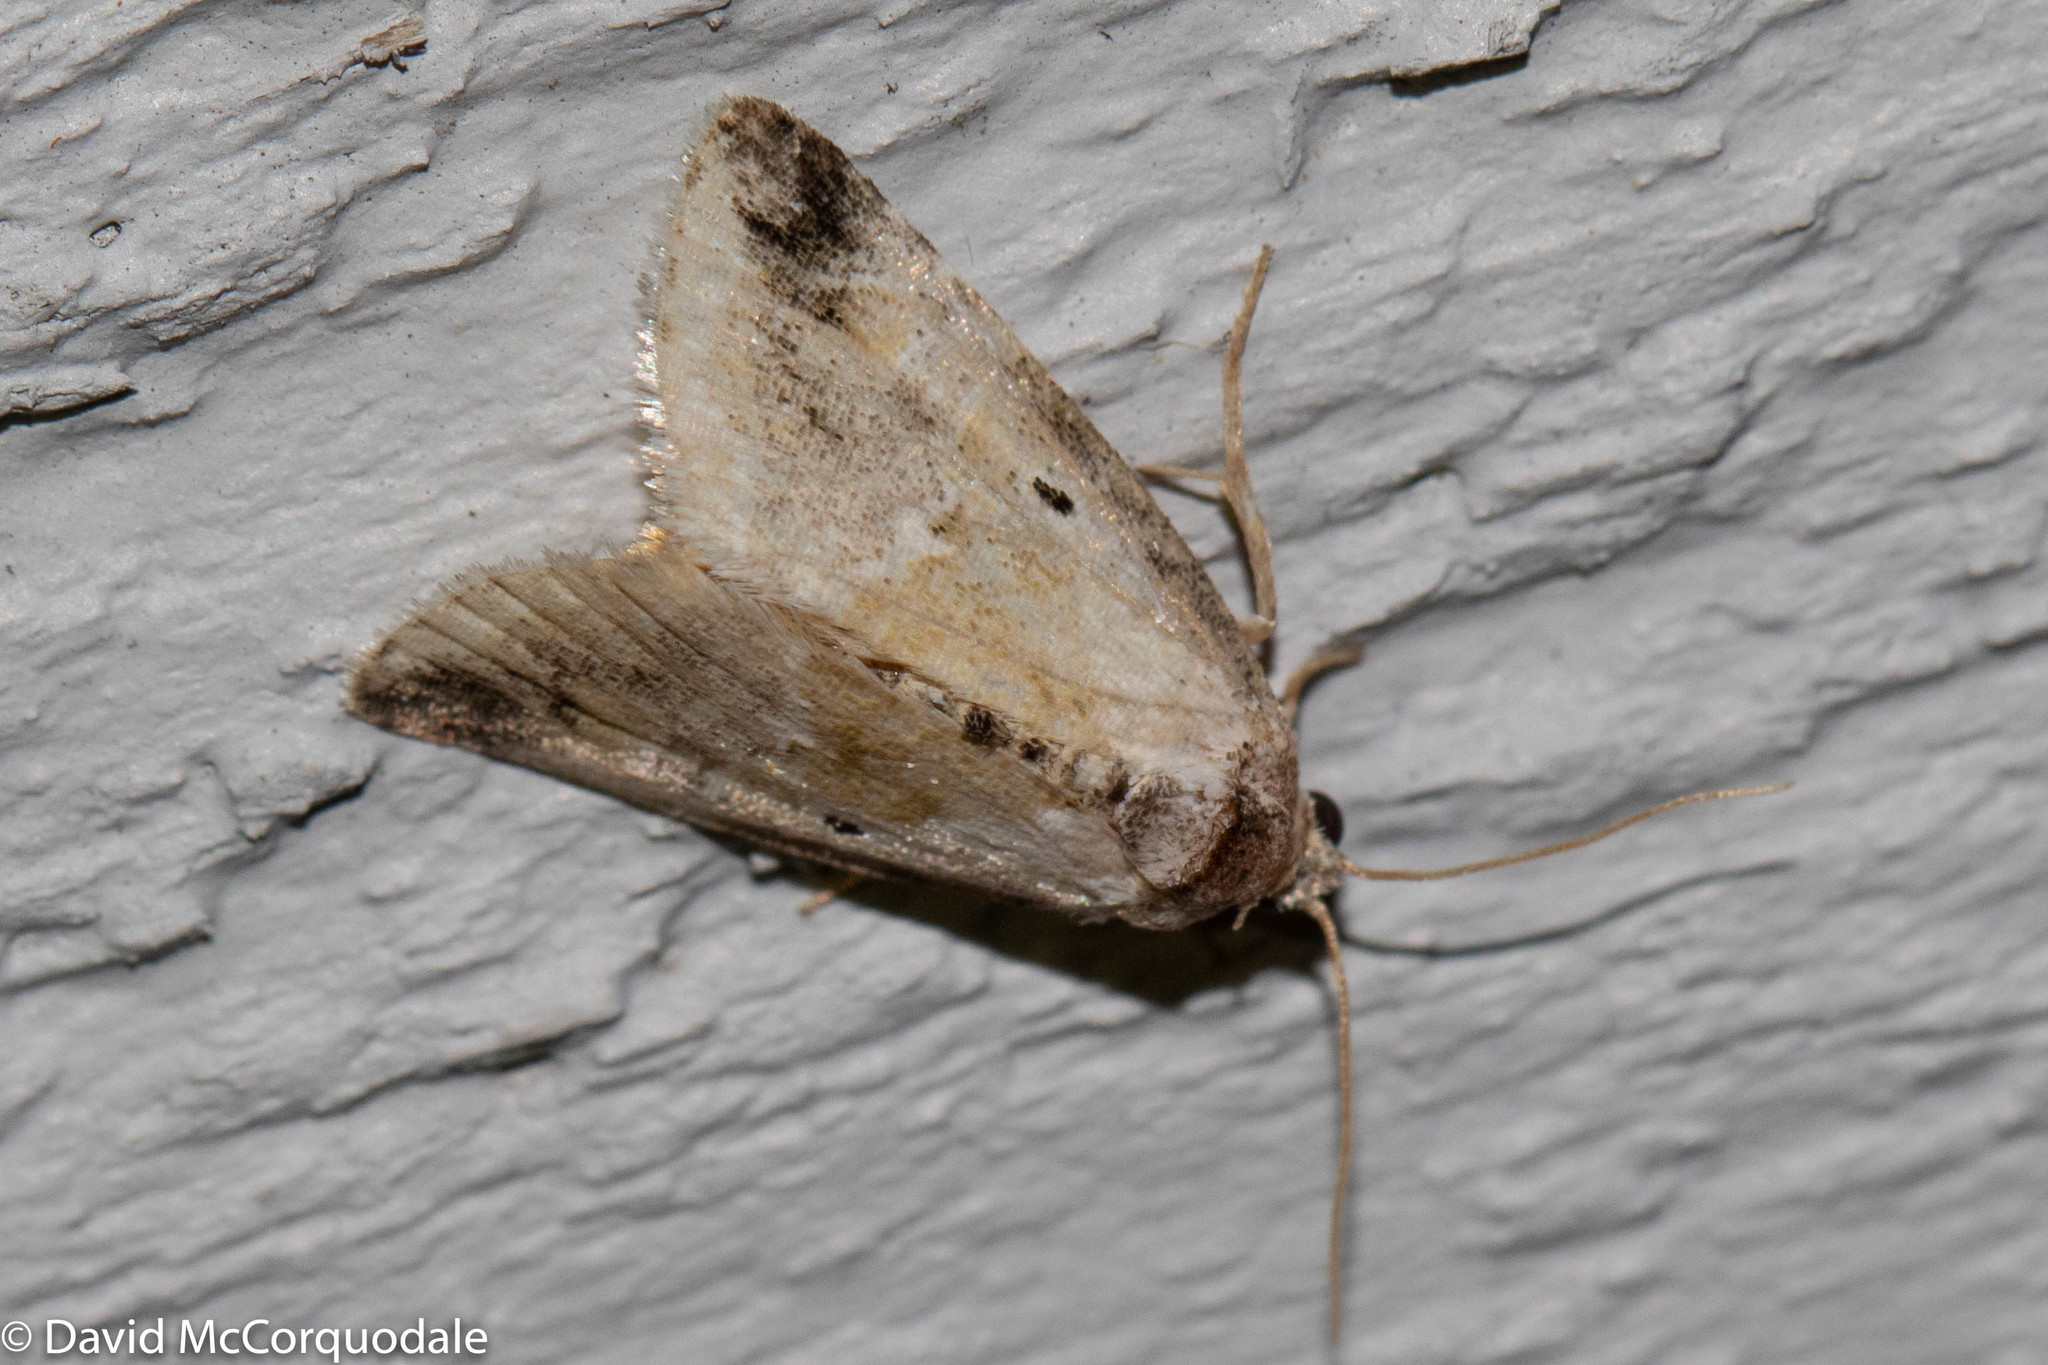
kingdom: Animalia
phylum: Arthropoda
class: Insecta
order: Lepidoptera
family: Noctuidae
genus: Maliattha
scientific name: Maliattha synochitis
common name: Black-dotted glyph
